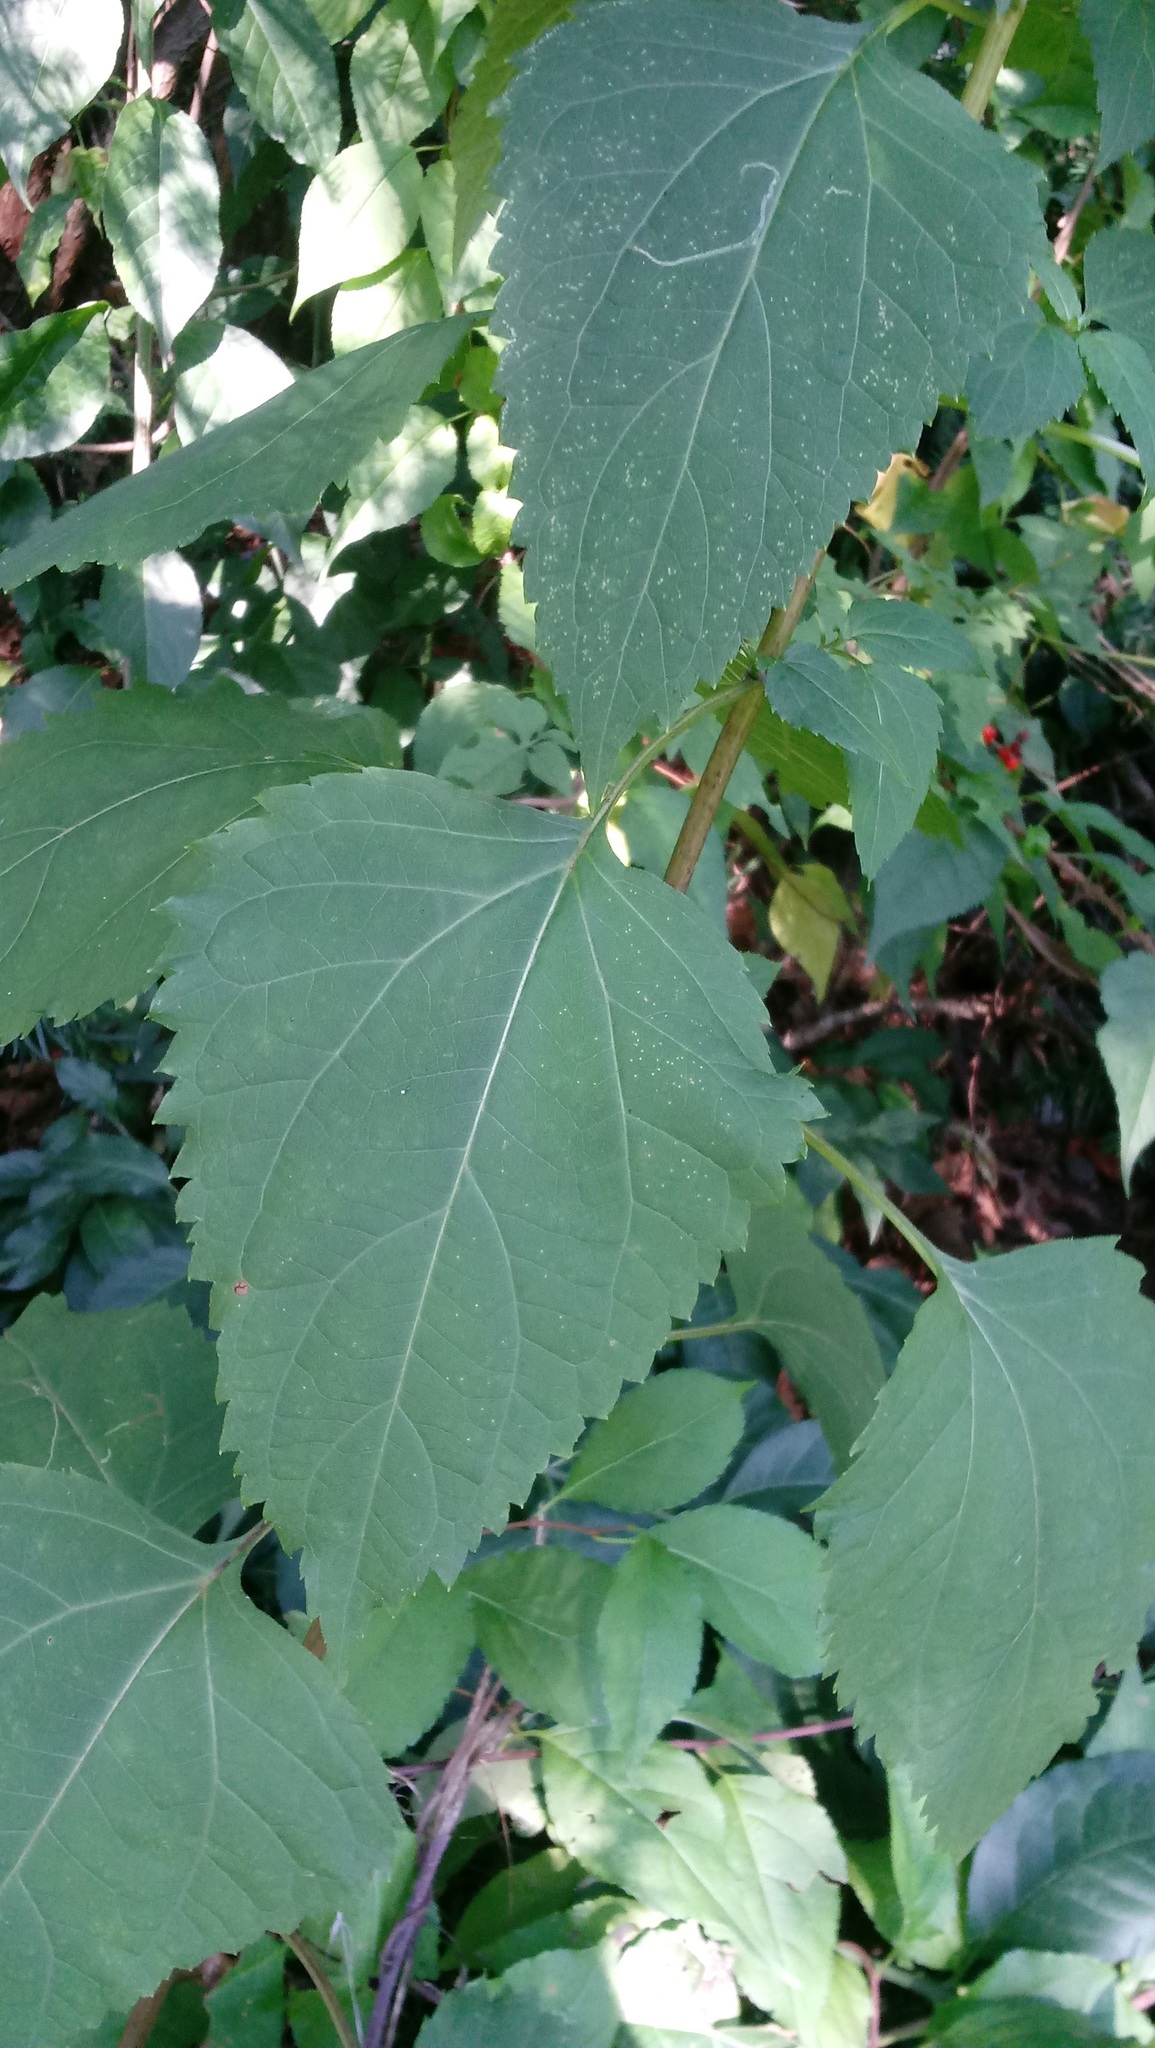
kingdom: Plantae
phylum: Tracheophyta
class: Magnoliopsida
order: Asterales
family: Asteraceae
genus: Ageratina
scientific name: Ageratina altissima
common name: White snakeroot
